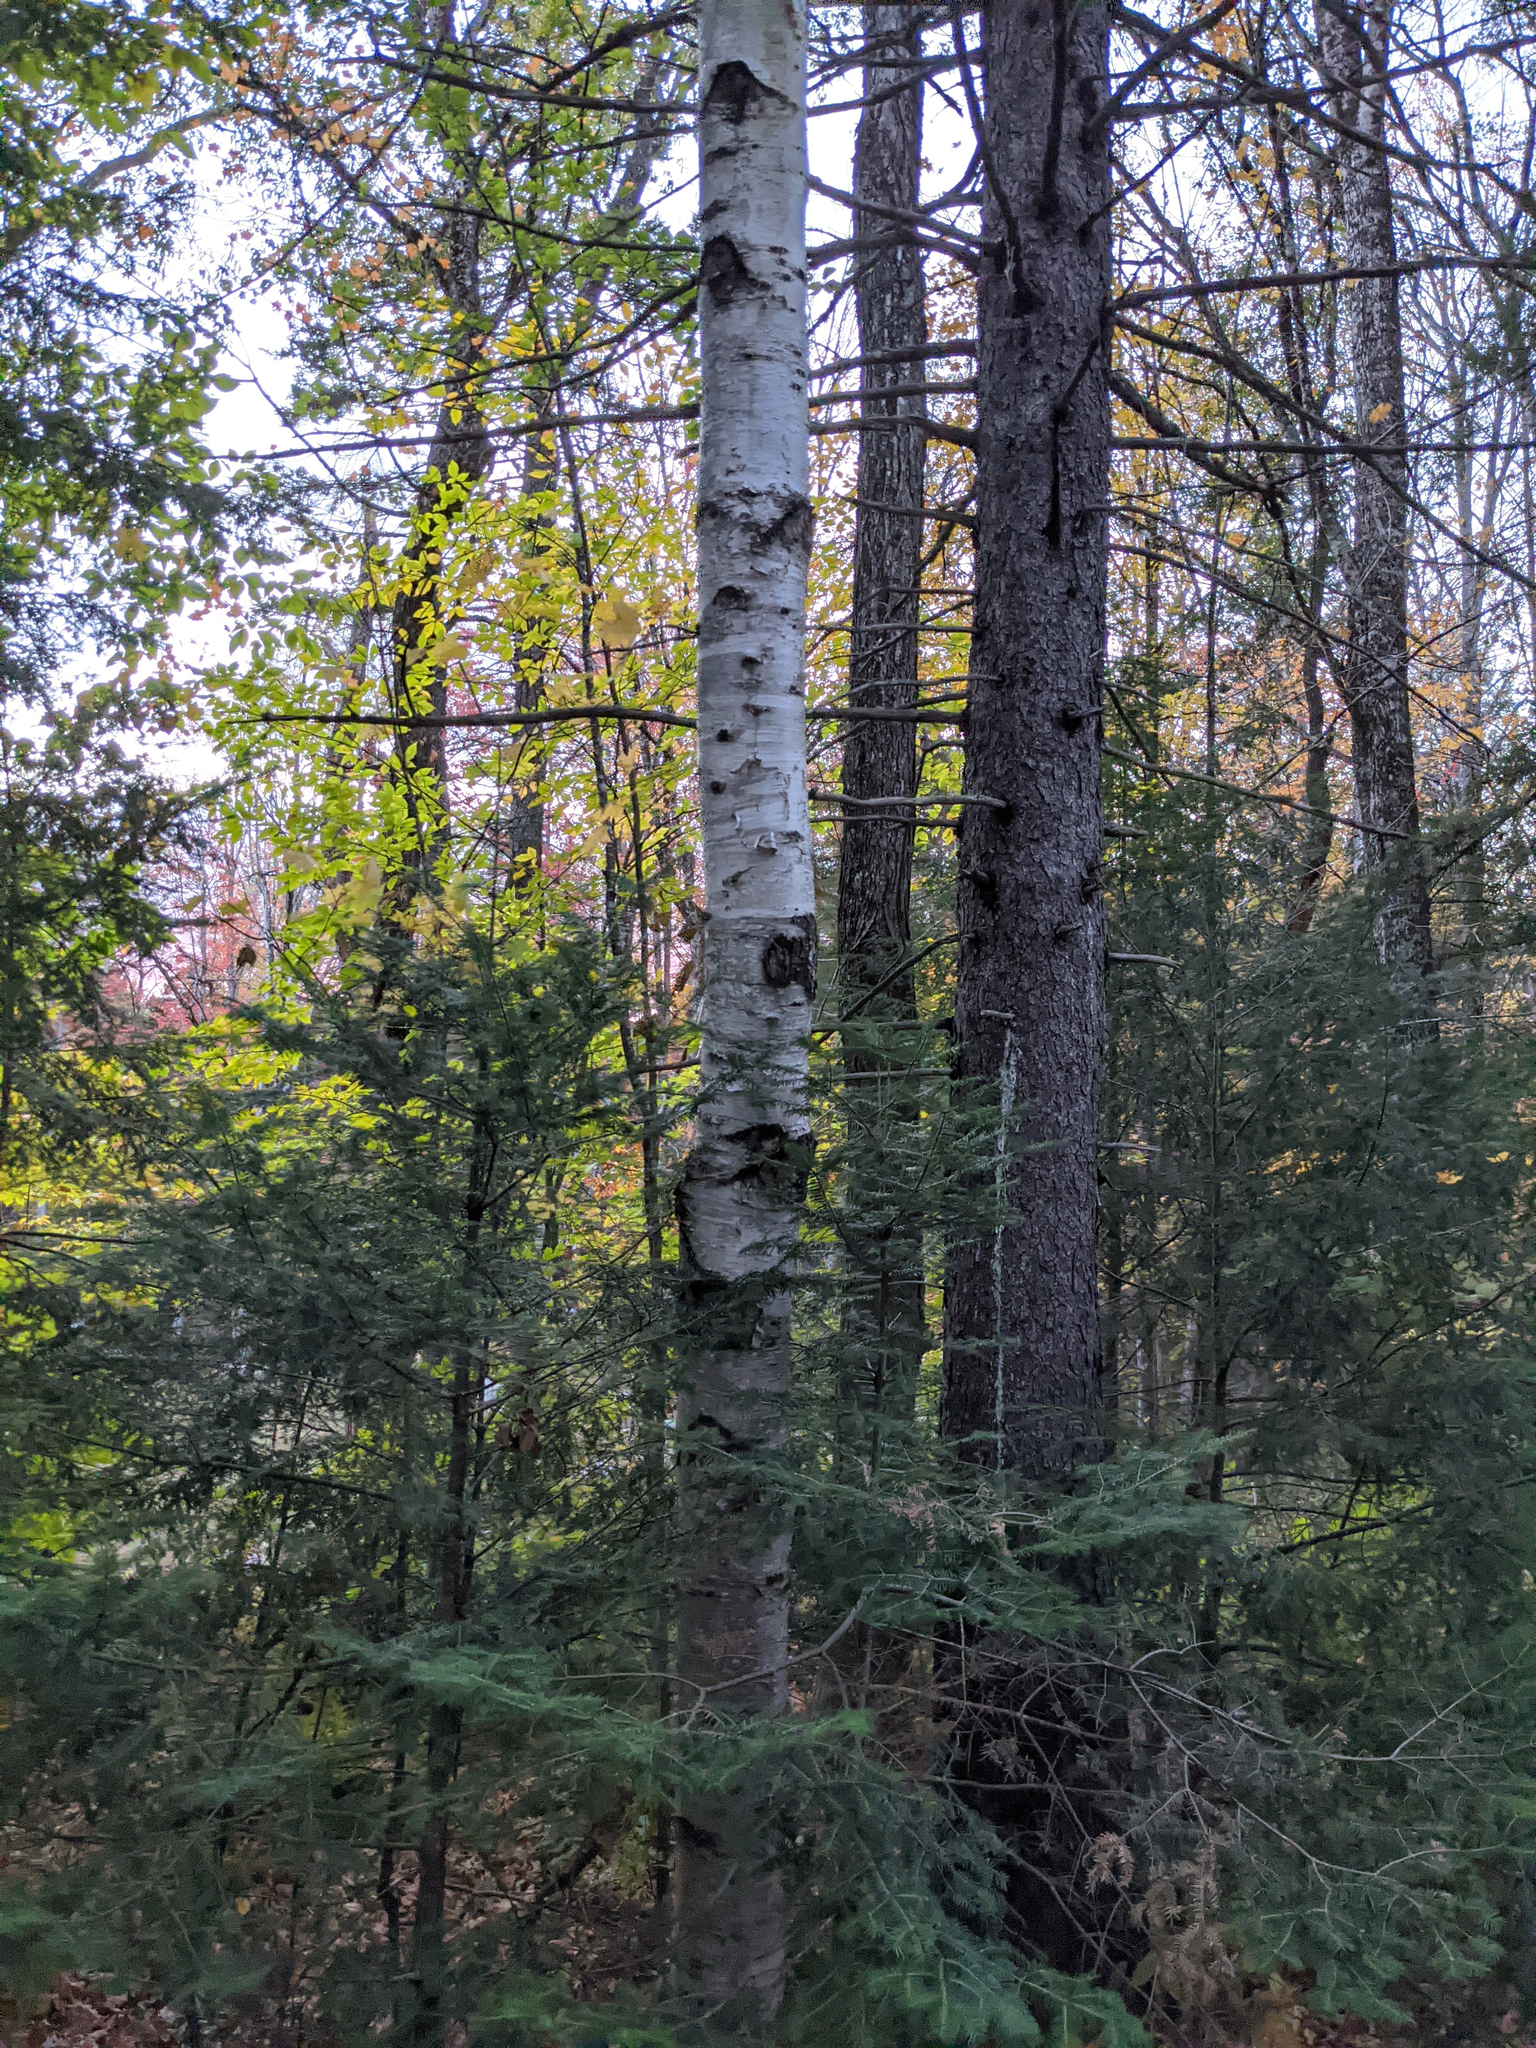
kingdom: Plantae
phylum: Tracheophyta
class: Magnoliopsida
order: Fagales
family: Betulaceae
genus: Betula
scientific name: Betula papyrifera
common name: Paper birch
